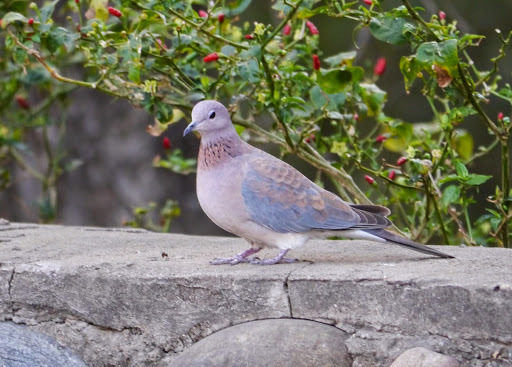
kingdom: Animalia
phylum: Chordata
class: Aves
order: Columbiformes
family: Columbidae
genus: Spilopelia
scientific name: Spilopelia senegalensis
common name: Laughing dove
